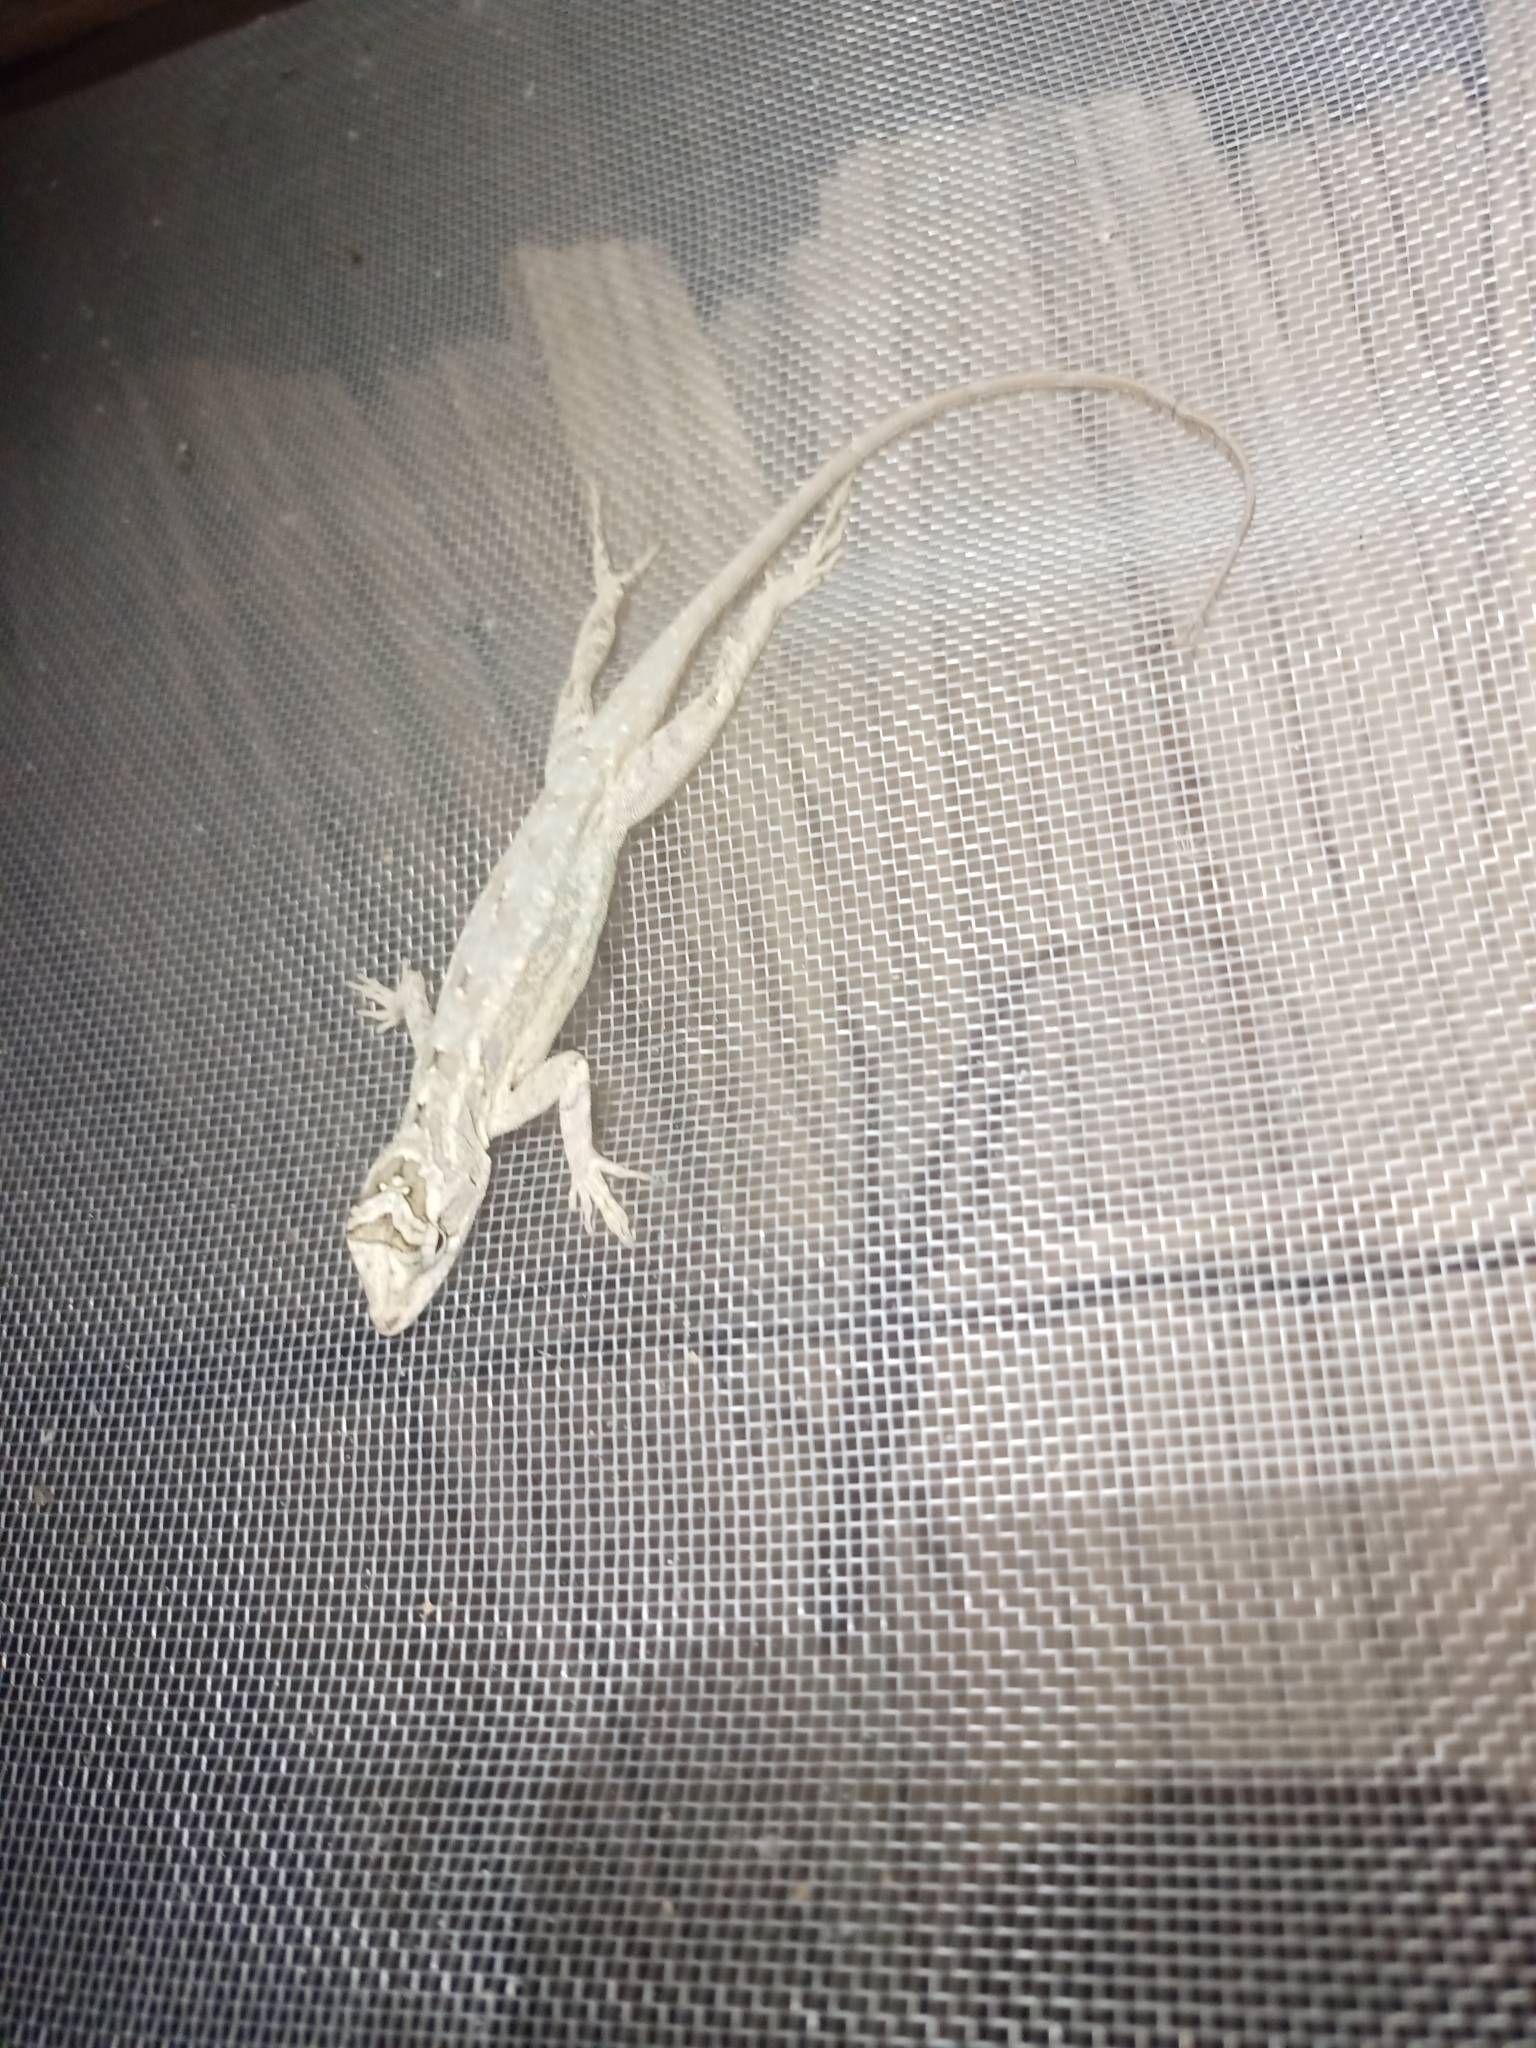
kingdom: Animalia
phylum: Chordata
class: Squamata
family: Dactyloidae
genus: Anolis
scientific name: Anolis lemurinus
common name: Ghost anole
